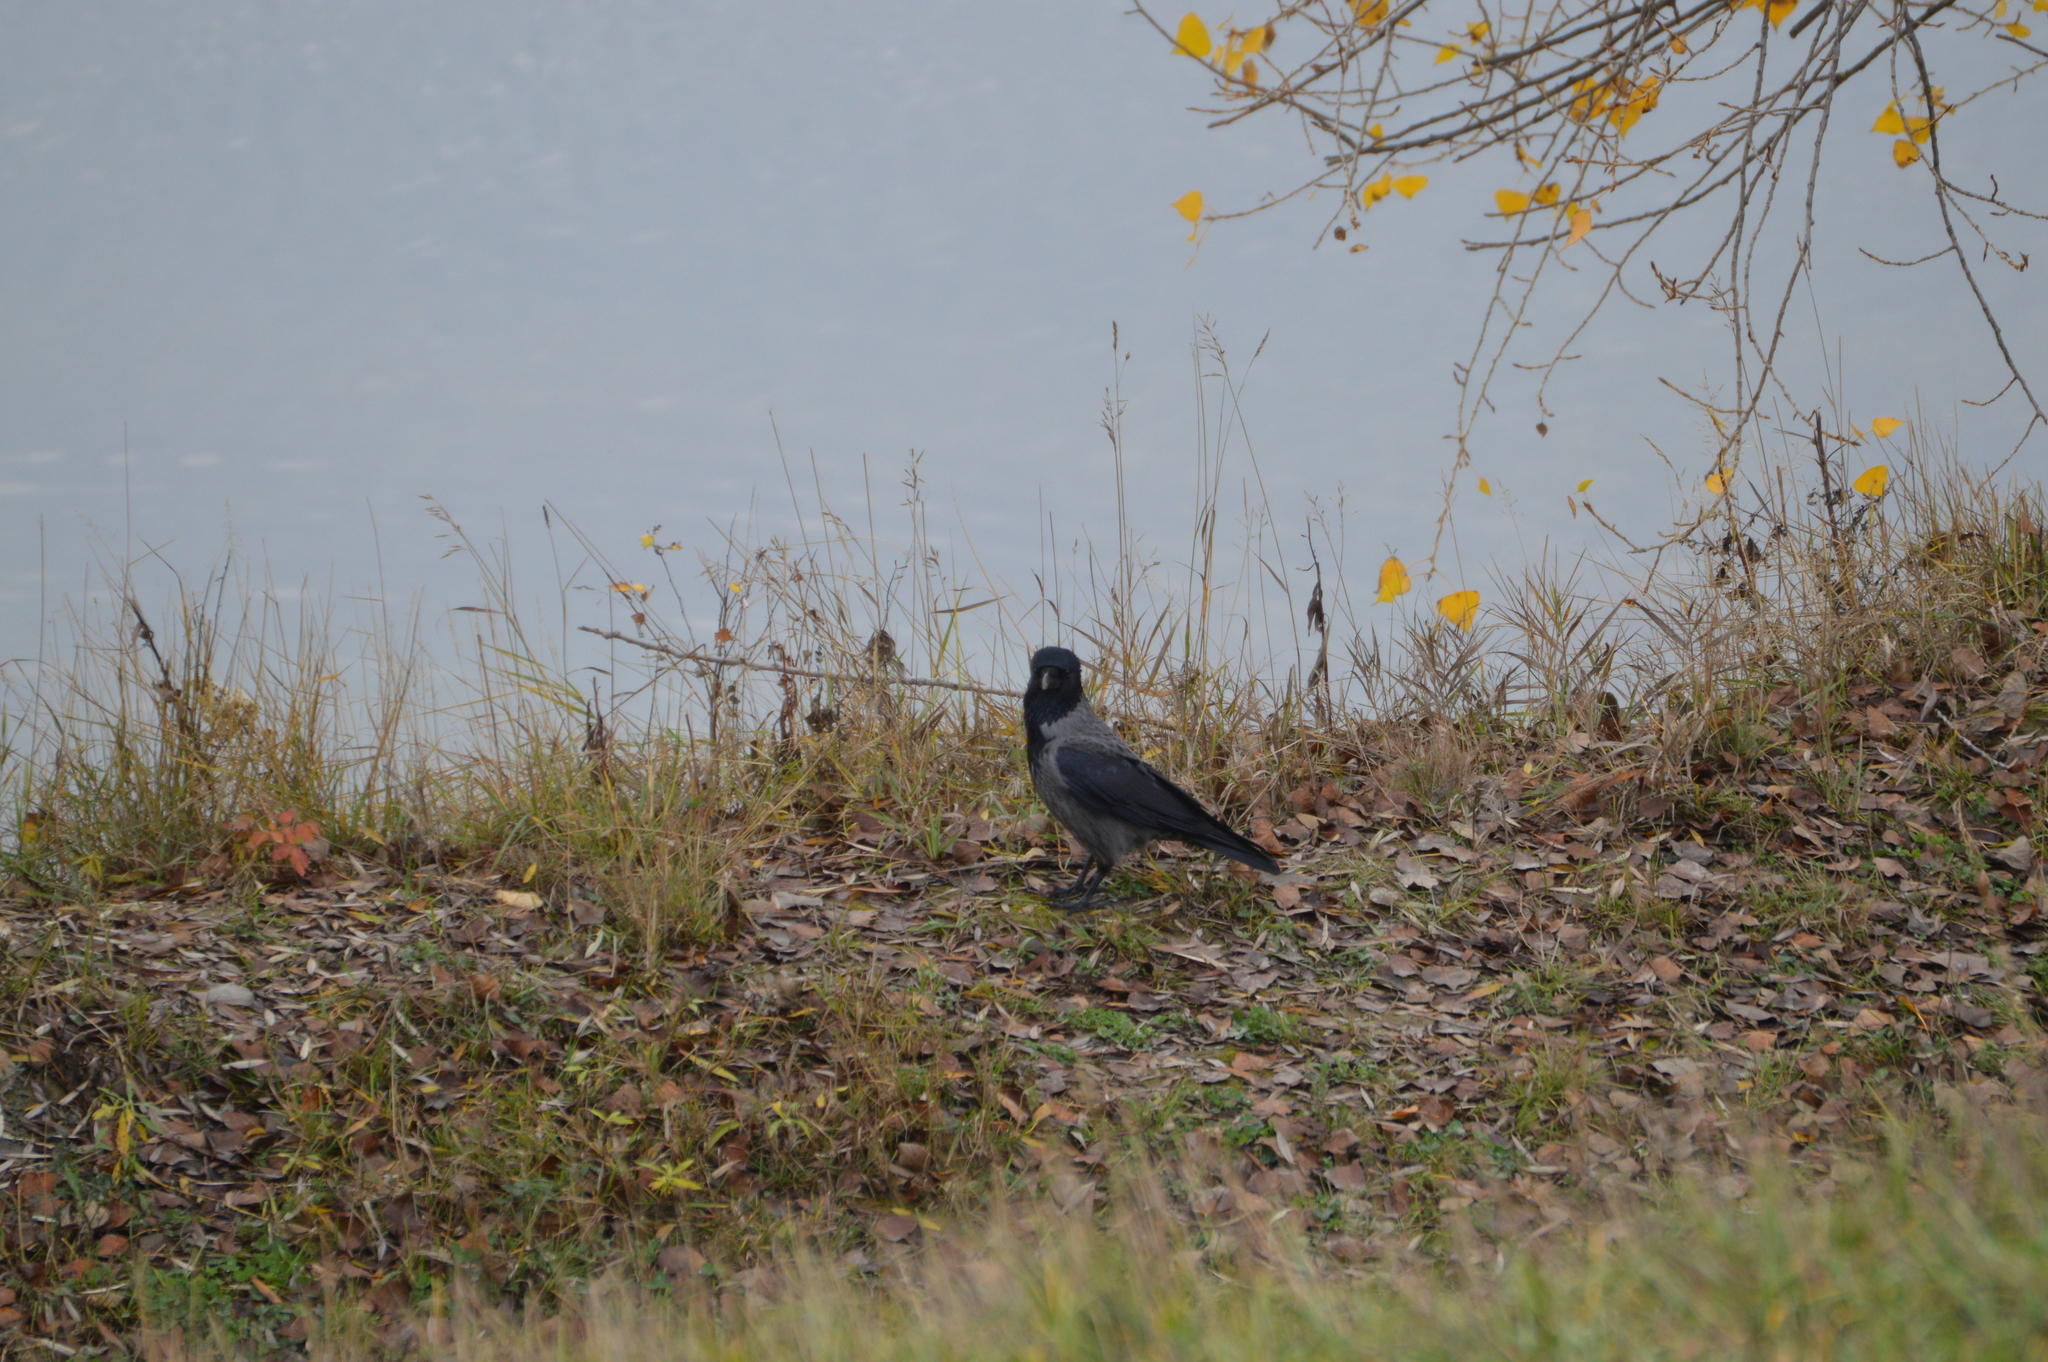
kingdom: Animalia
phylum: Chordata
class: Aves
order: Passeriformes
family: Corvidae
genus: Corvus
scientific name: Corvus
